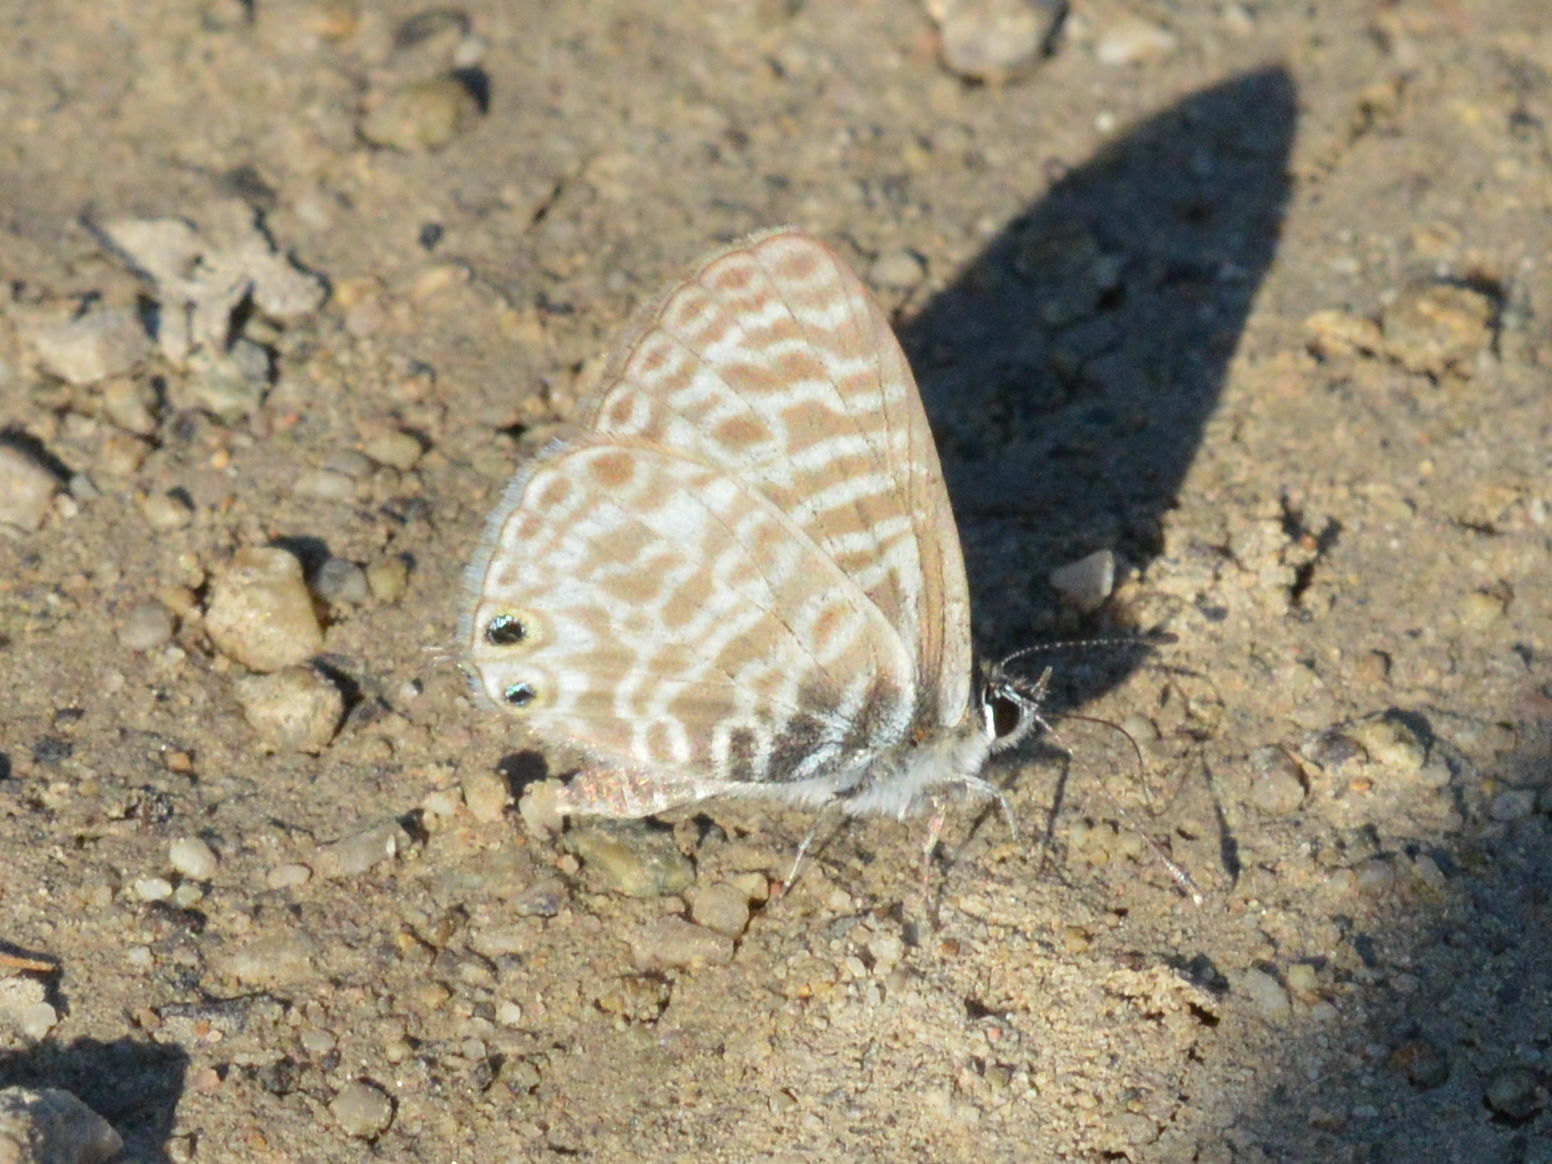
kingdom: Animalia
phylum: Arthropoda
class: Insecta
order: Lepidoptera
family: Lycaenidae
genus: Leptotes
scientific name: Leptotes pirithous
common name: Lang's short-tailed blue
